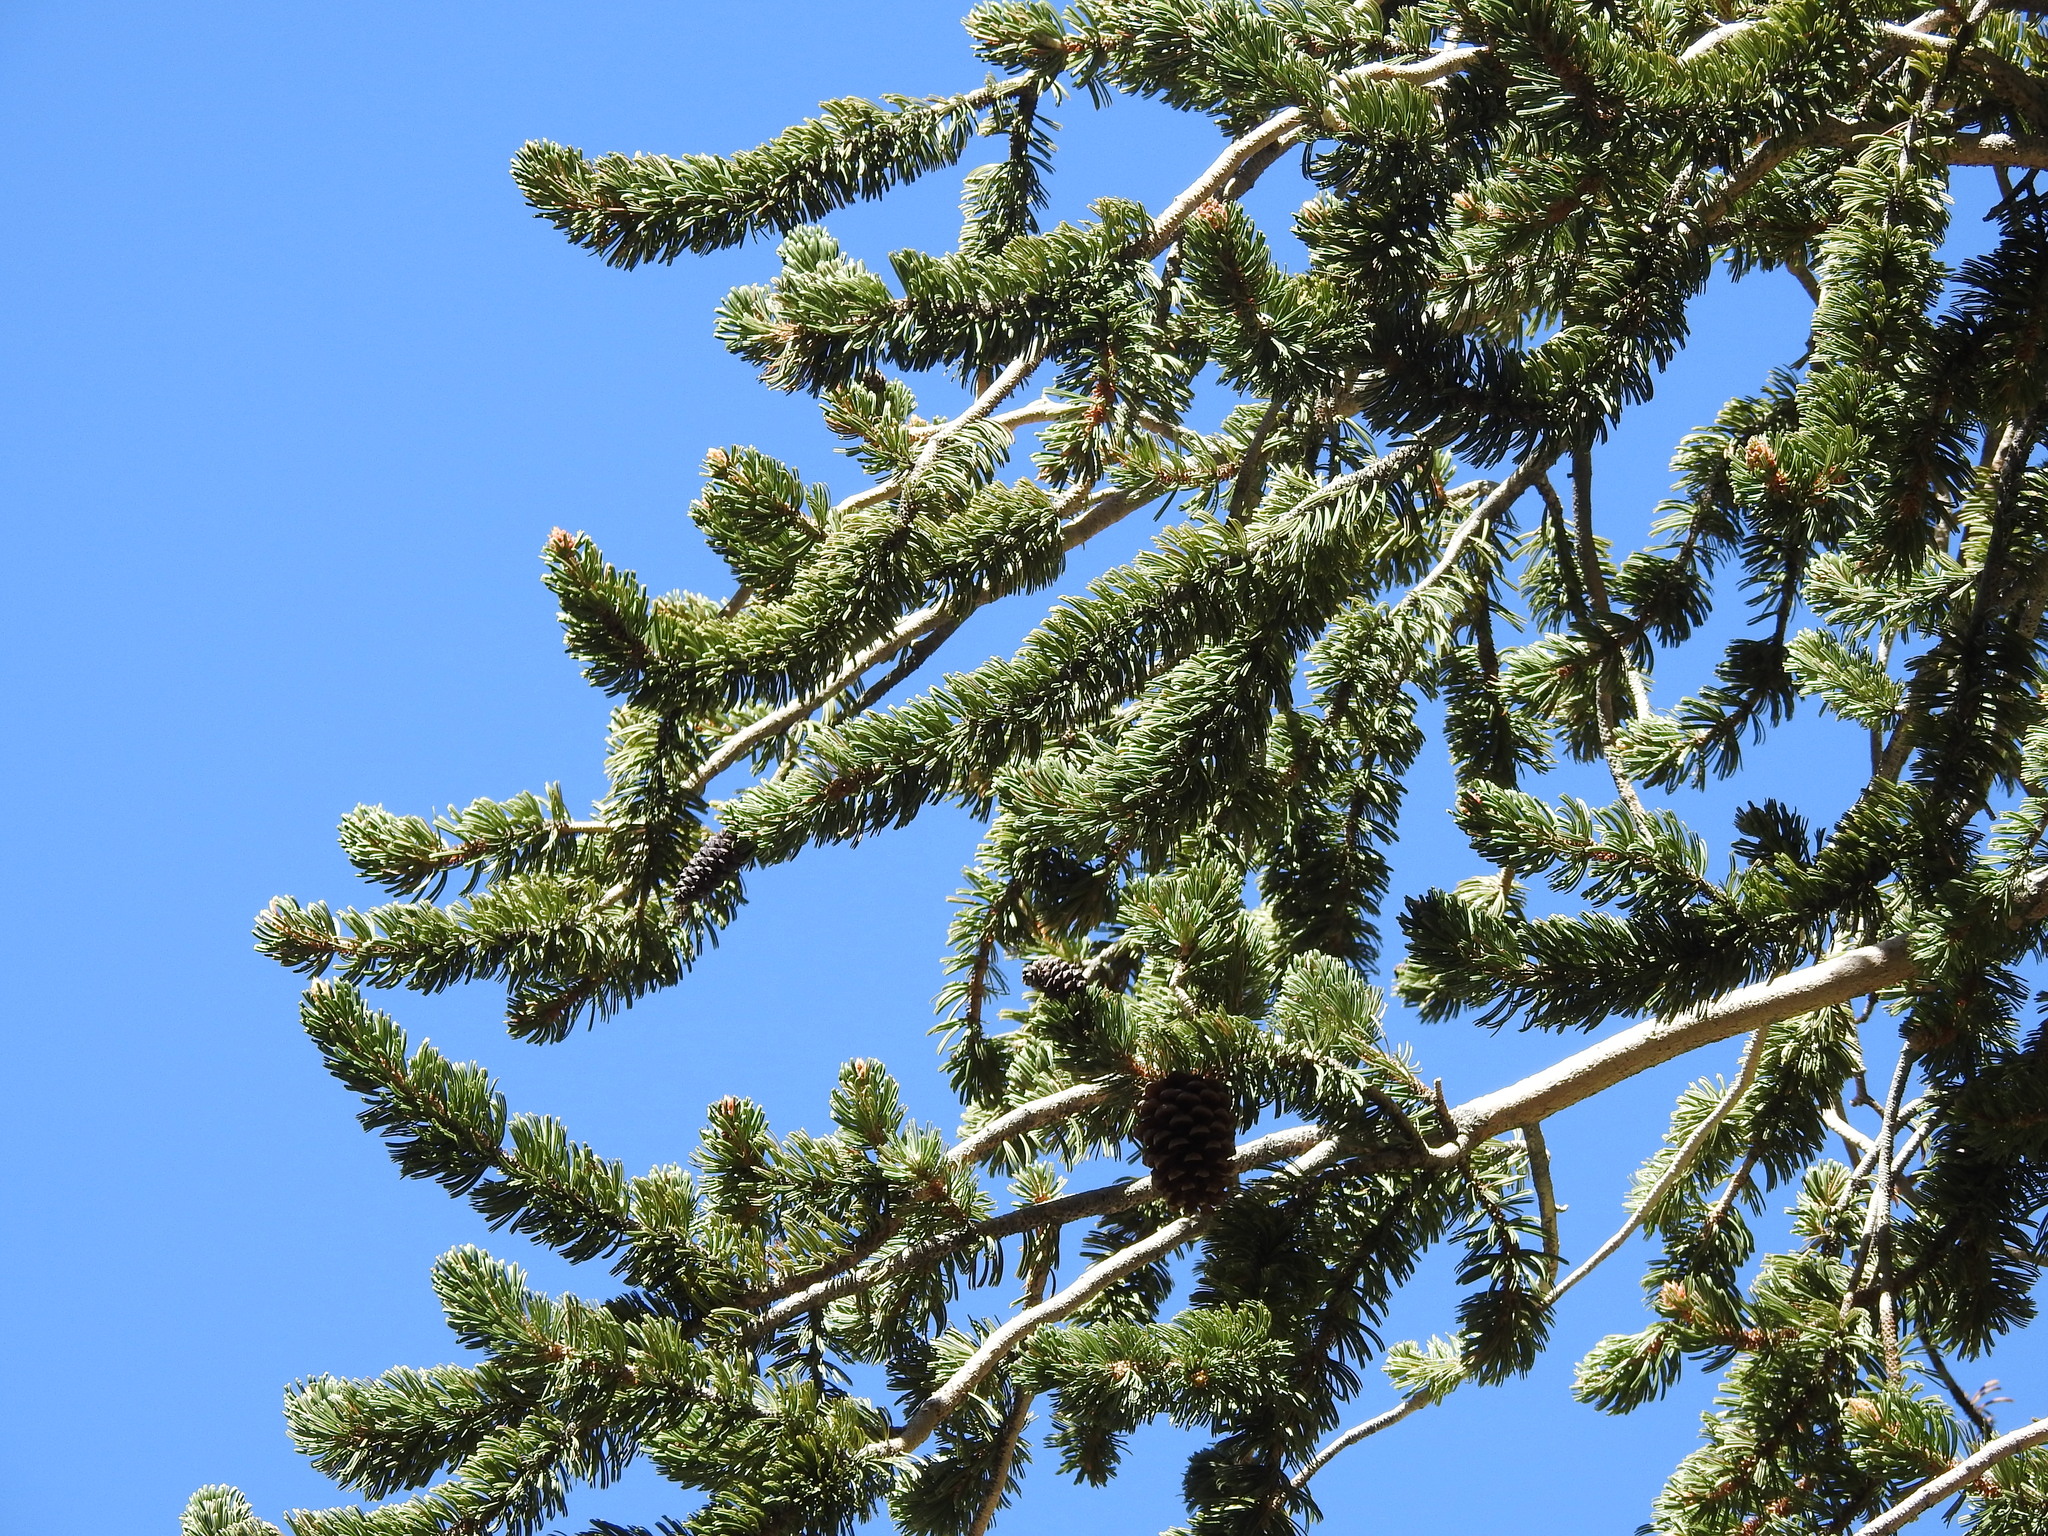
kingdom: Plantae
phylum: Tracheophyta
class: Pinopsida
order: Pinales
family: Pinaceae
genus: Pinus
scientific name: Pinus longaeva
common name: Intermountain bristlecone pine
